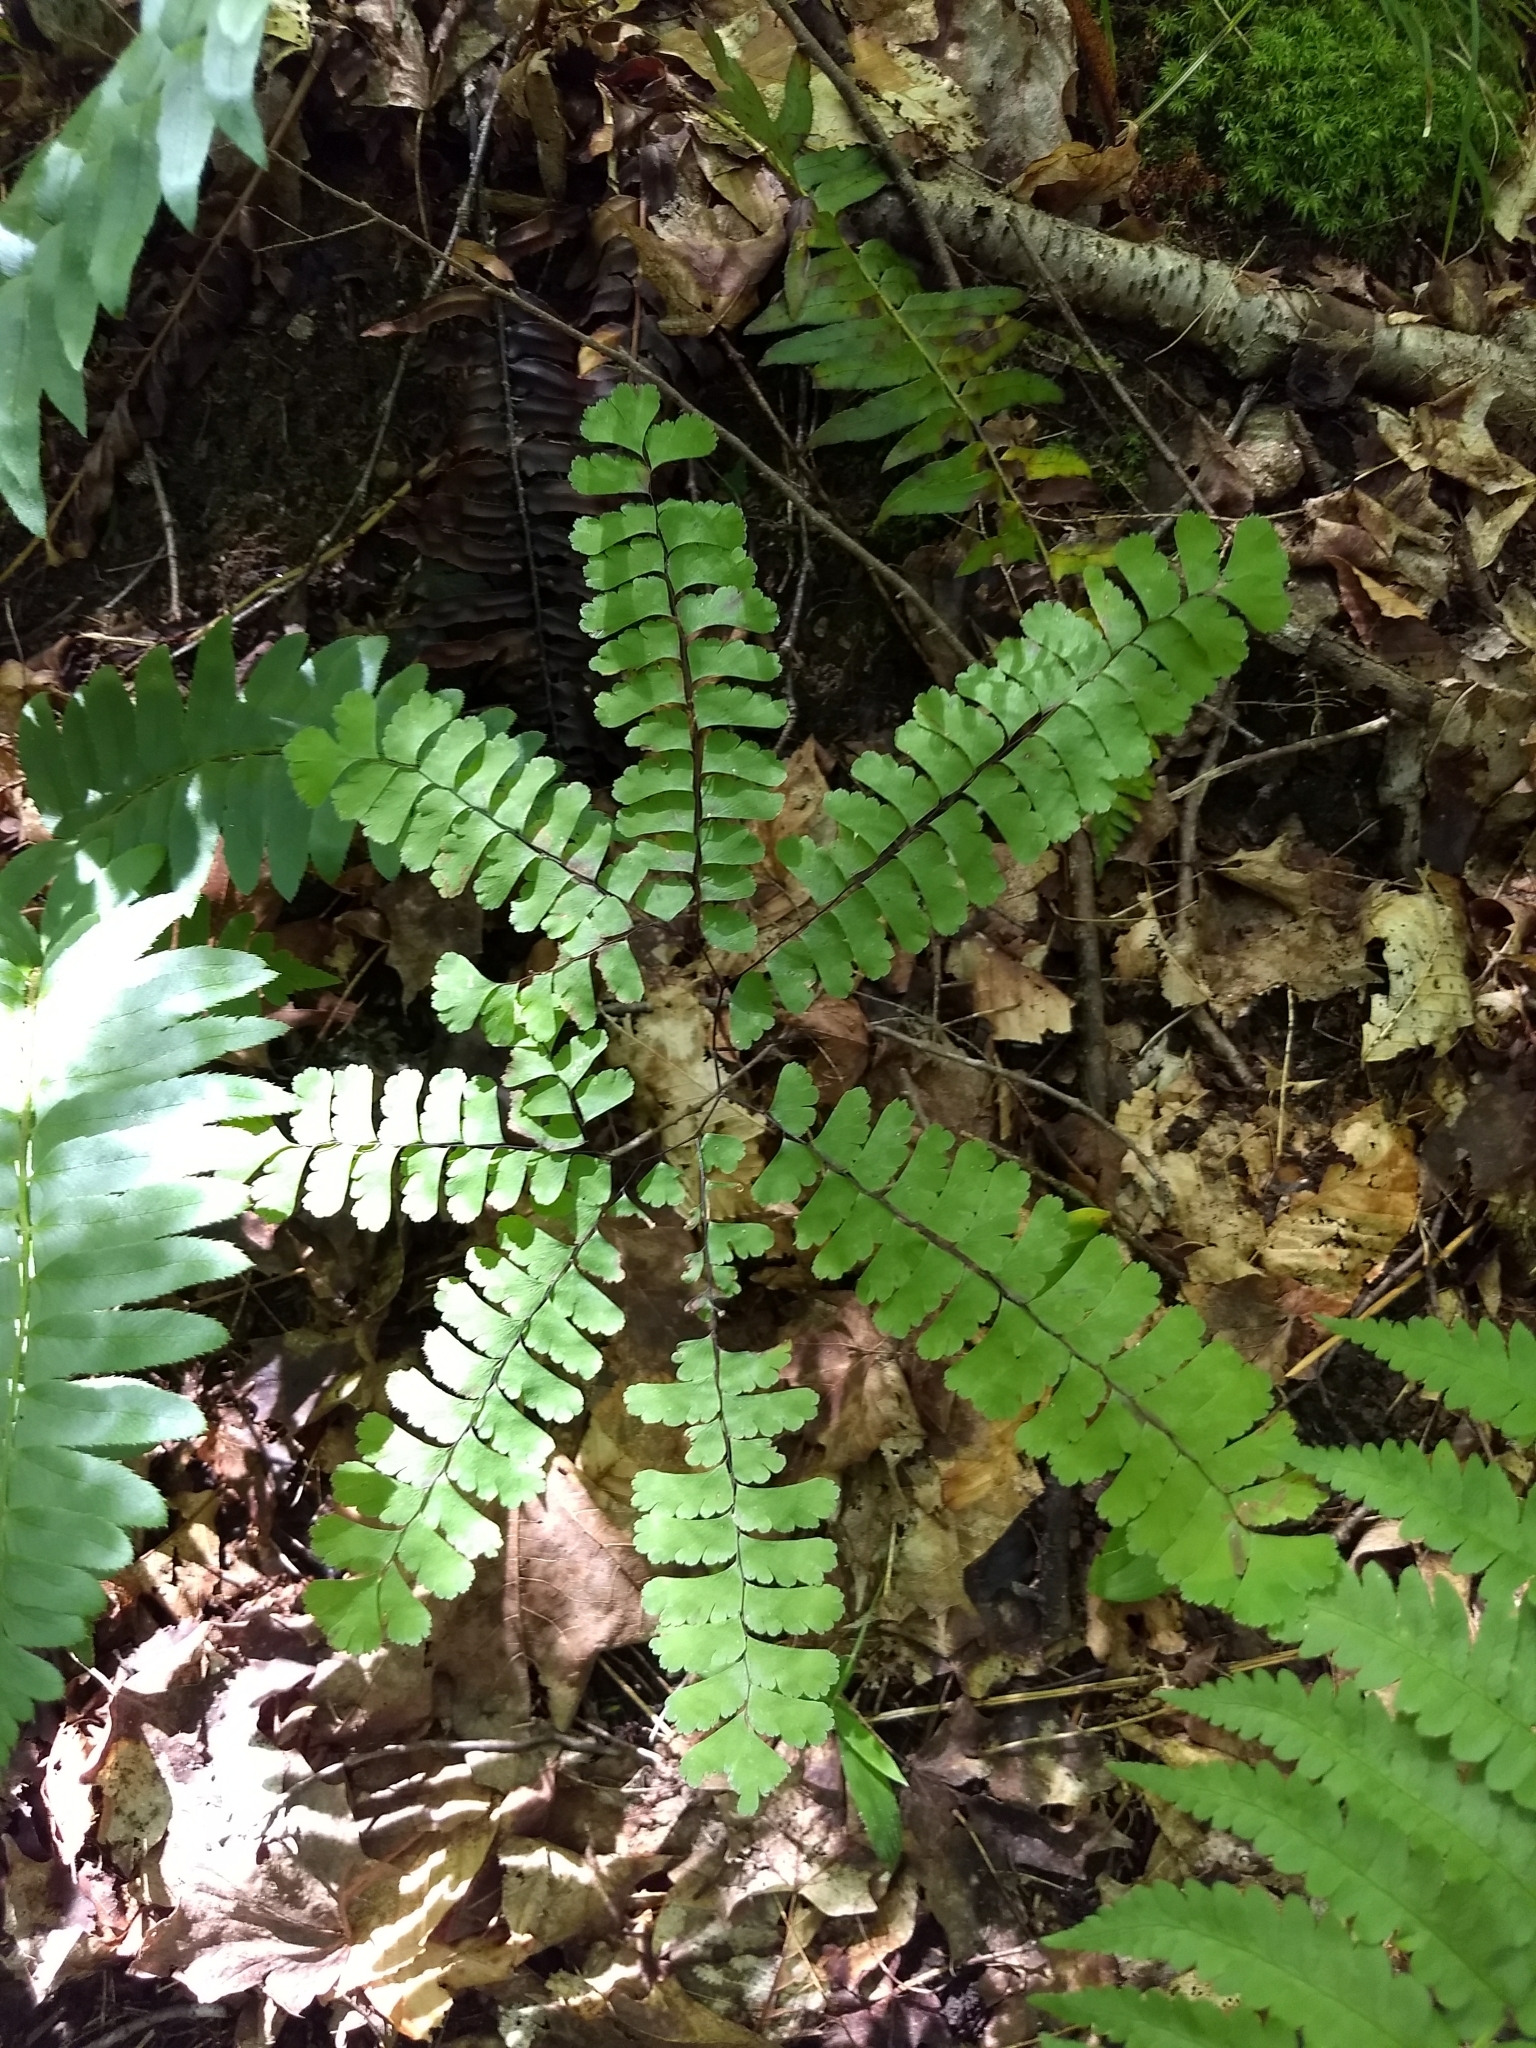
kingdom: Plantae
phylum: Tracheophyta
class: Polypodiopsida
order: Polypodiales
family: Pteridaceae
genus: Adiantum
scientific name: Adiantum pedatum
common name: Five-finger fern
